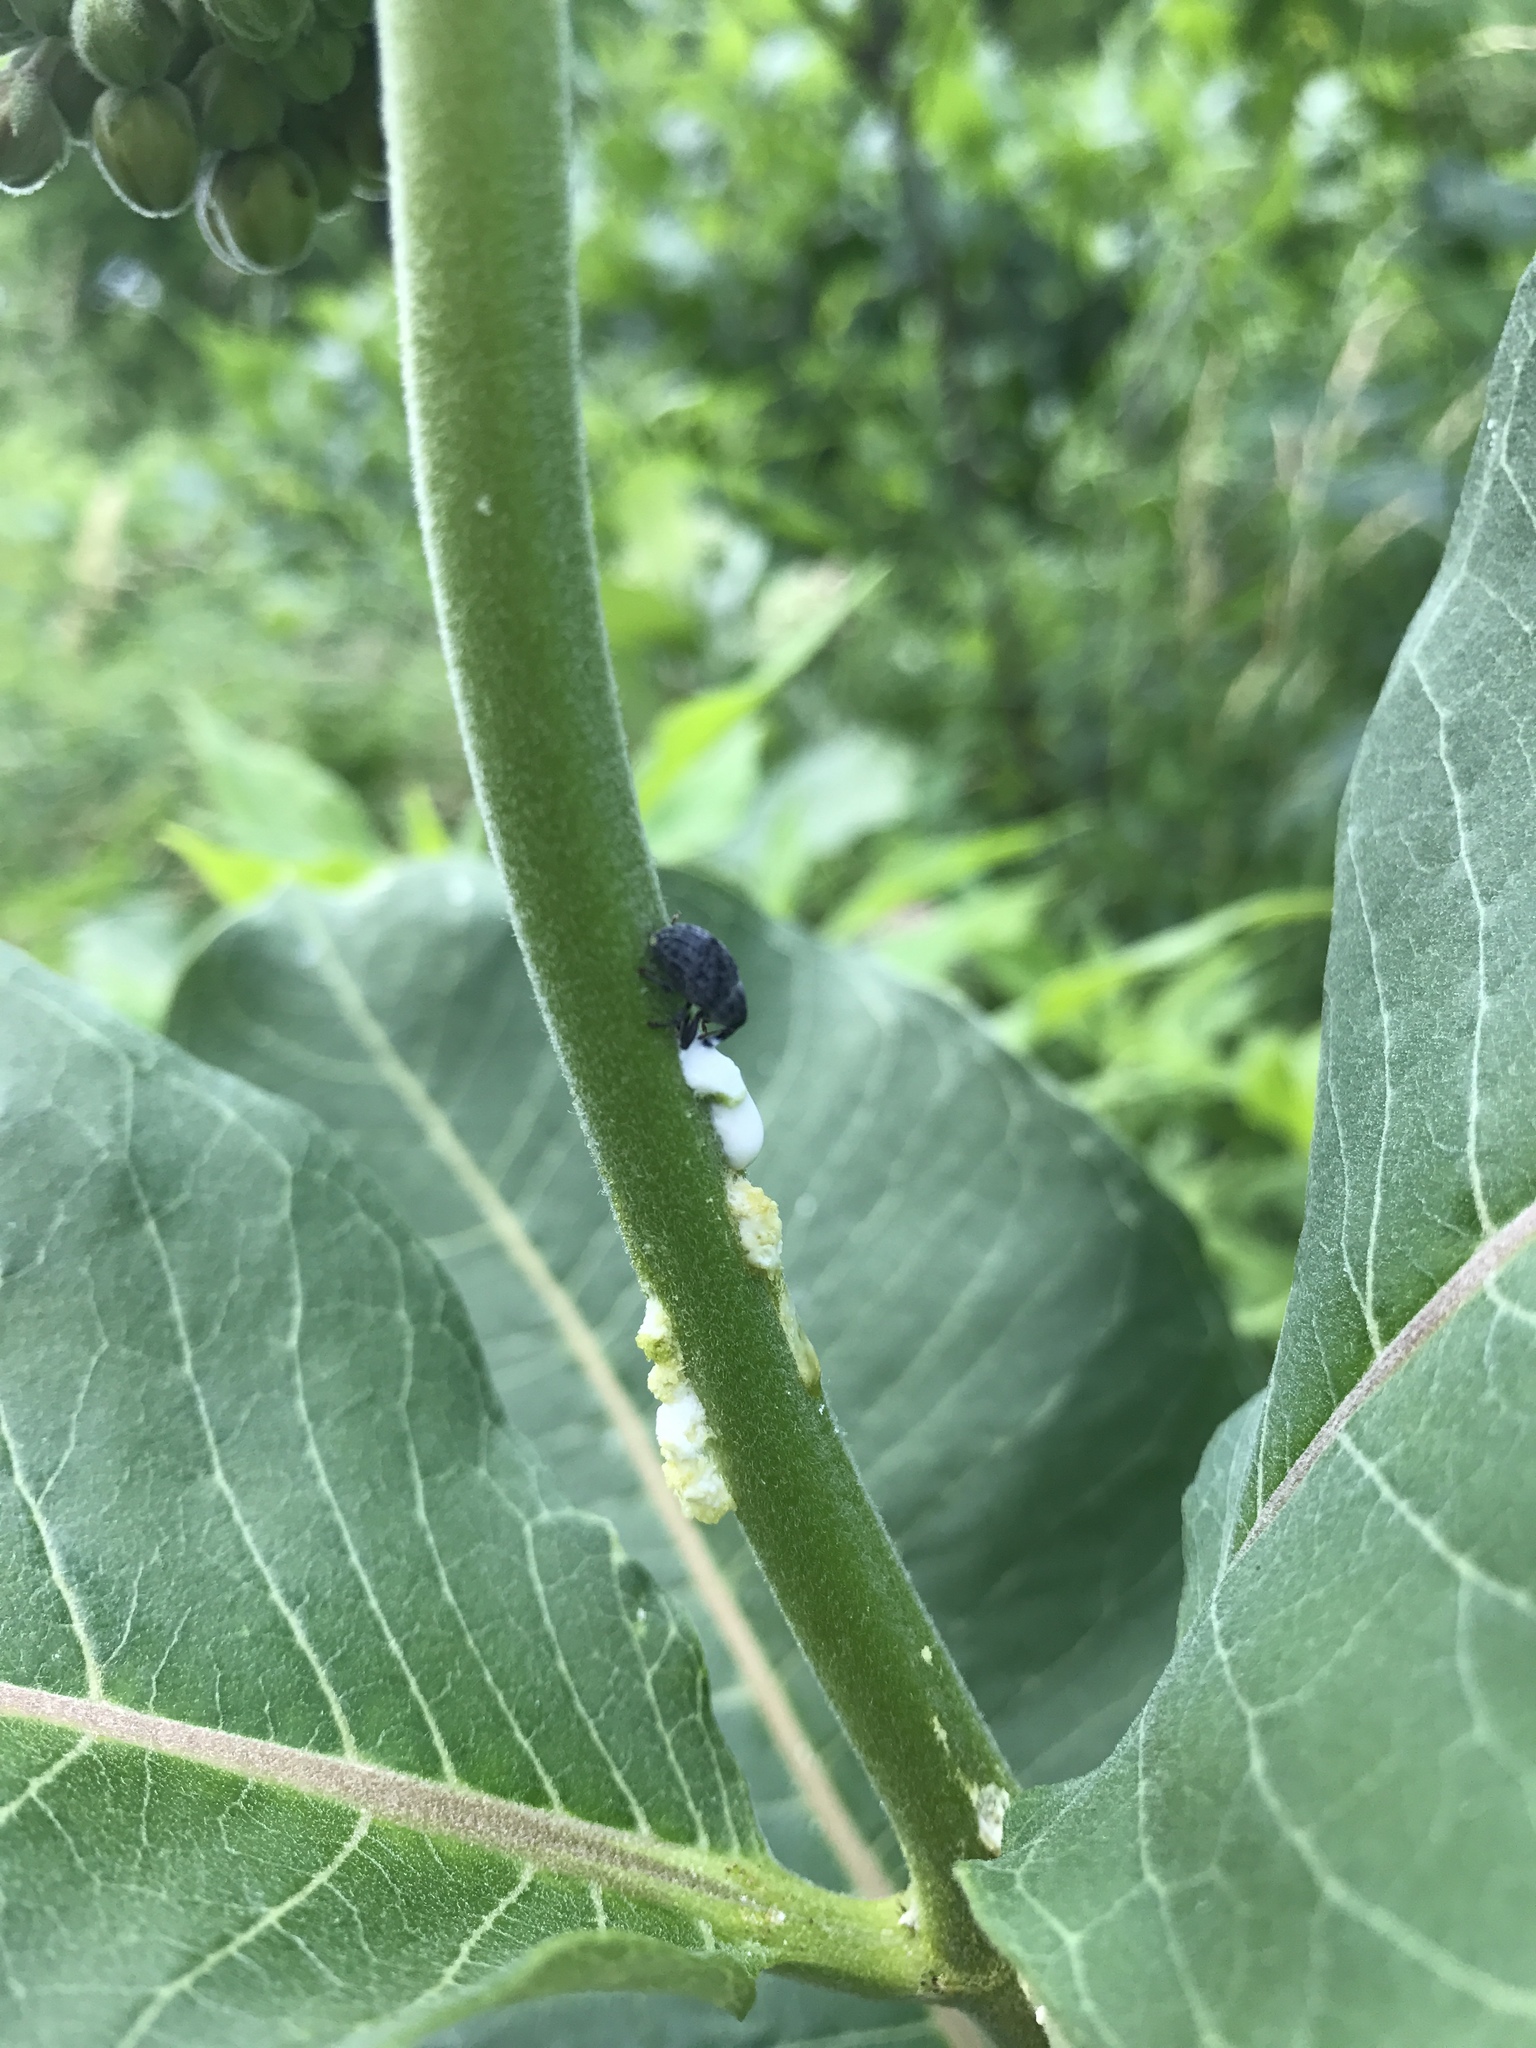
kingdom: Animalia
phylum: Arthropoda
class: Insecta
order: Coleoptera
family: Curculionidae
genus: Rhyssomatus
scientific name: Rhyssomatus lineaticollis
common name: Milkweed stem weevil
